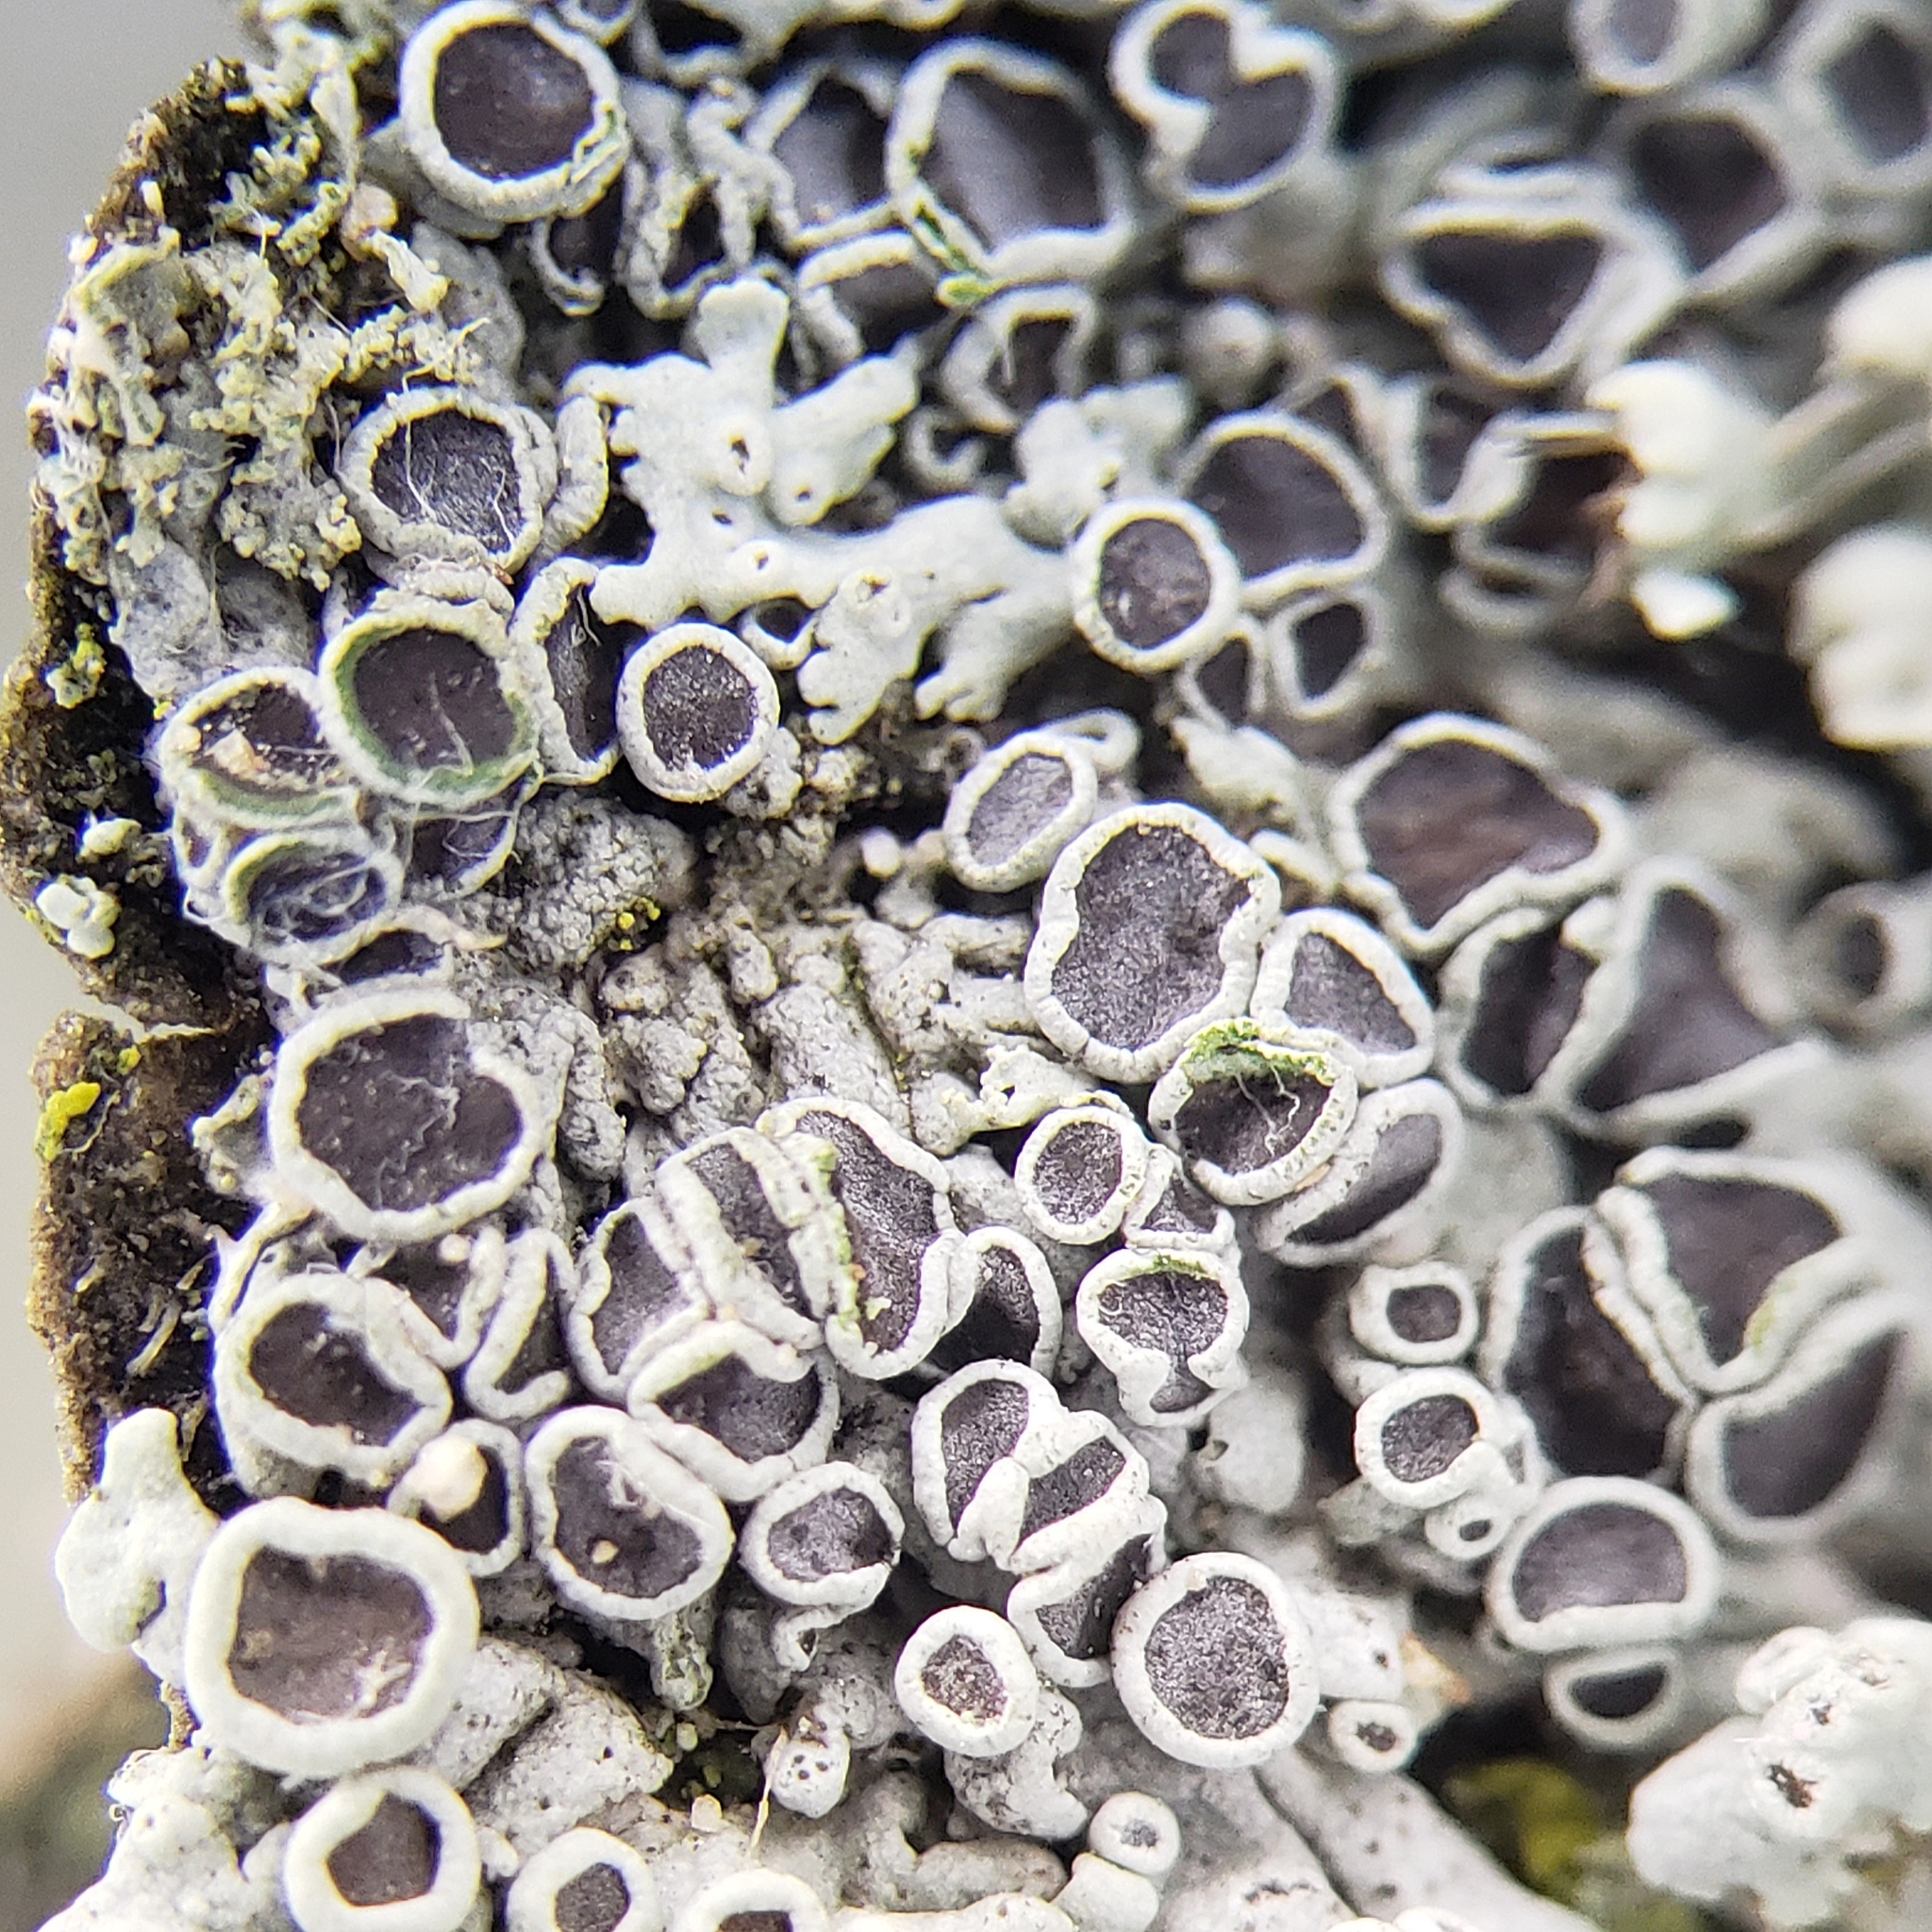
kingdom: Fungi
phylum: Ascomycota
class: Lecanoromycetes
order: Caliciales
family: Physciaceae
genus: Physcia
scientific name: Physcia stellaris
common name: Star rosette lichen
